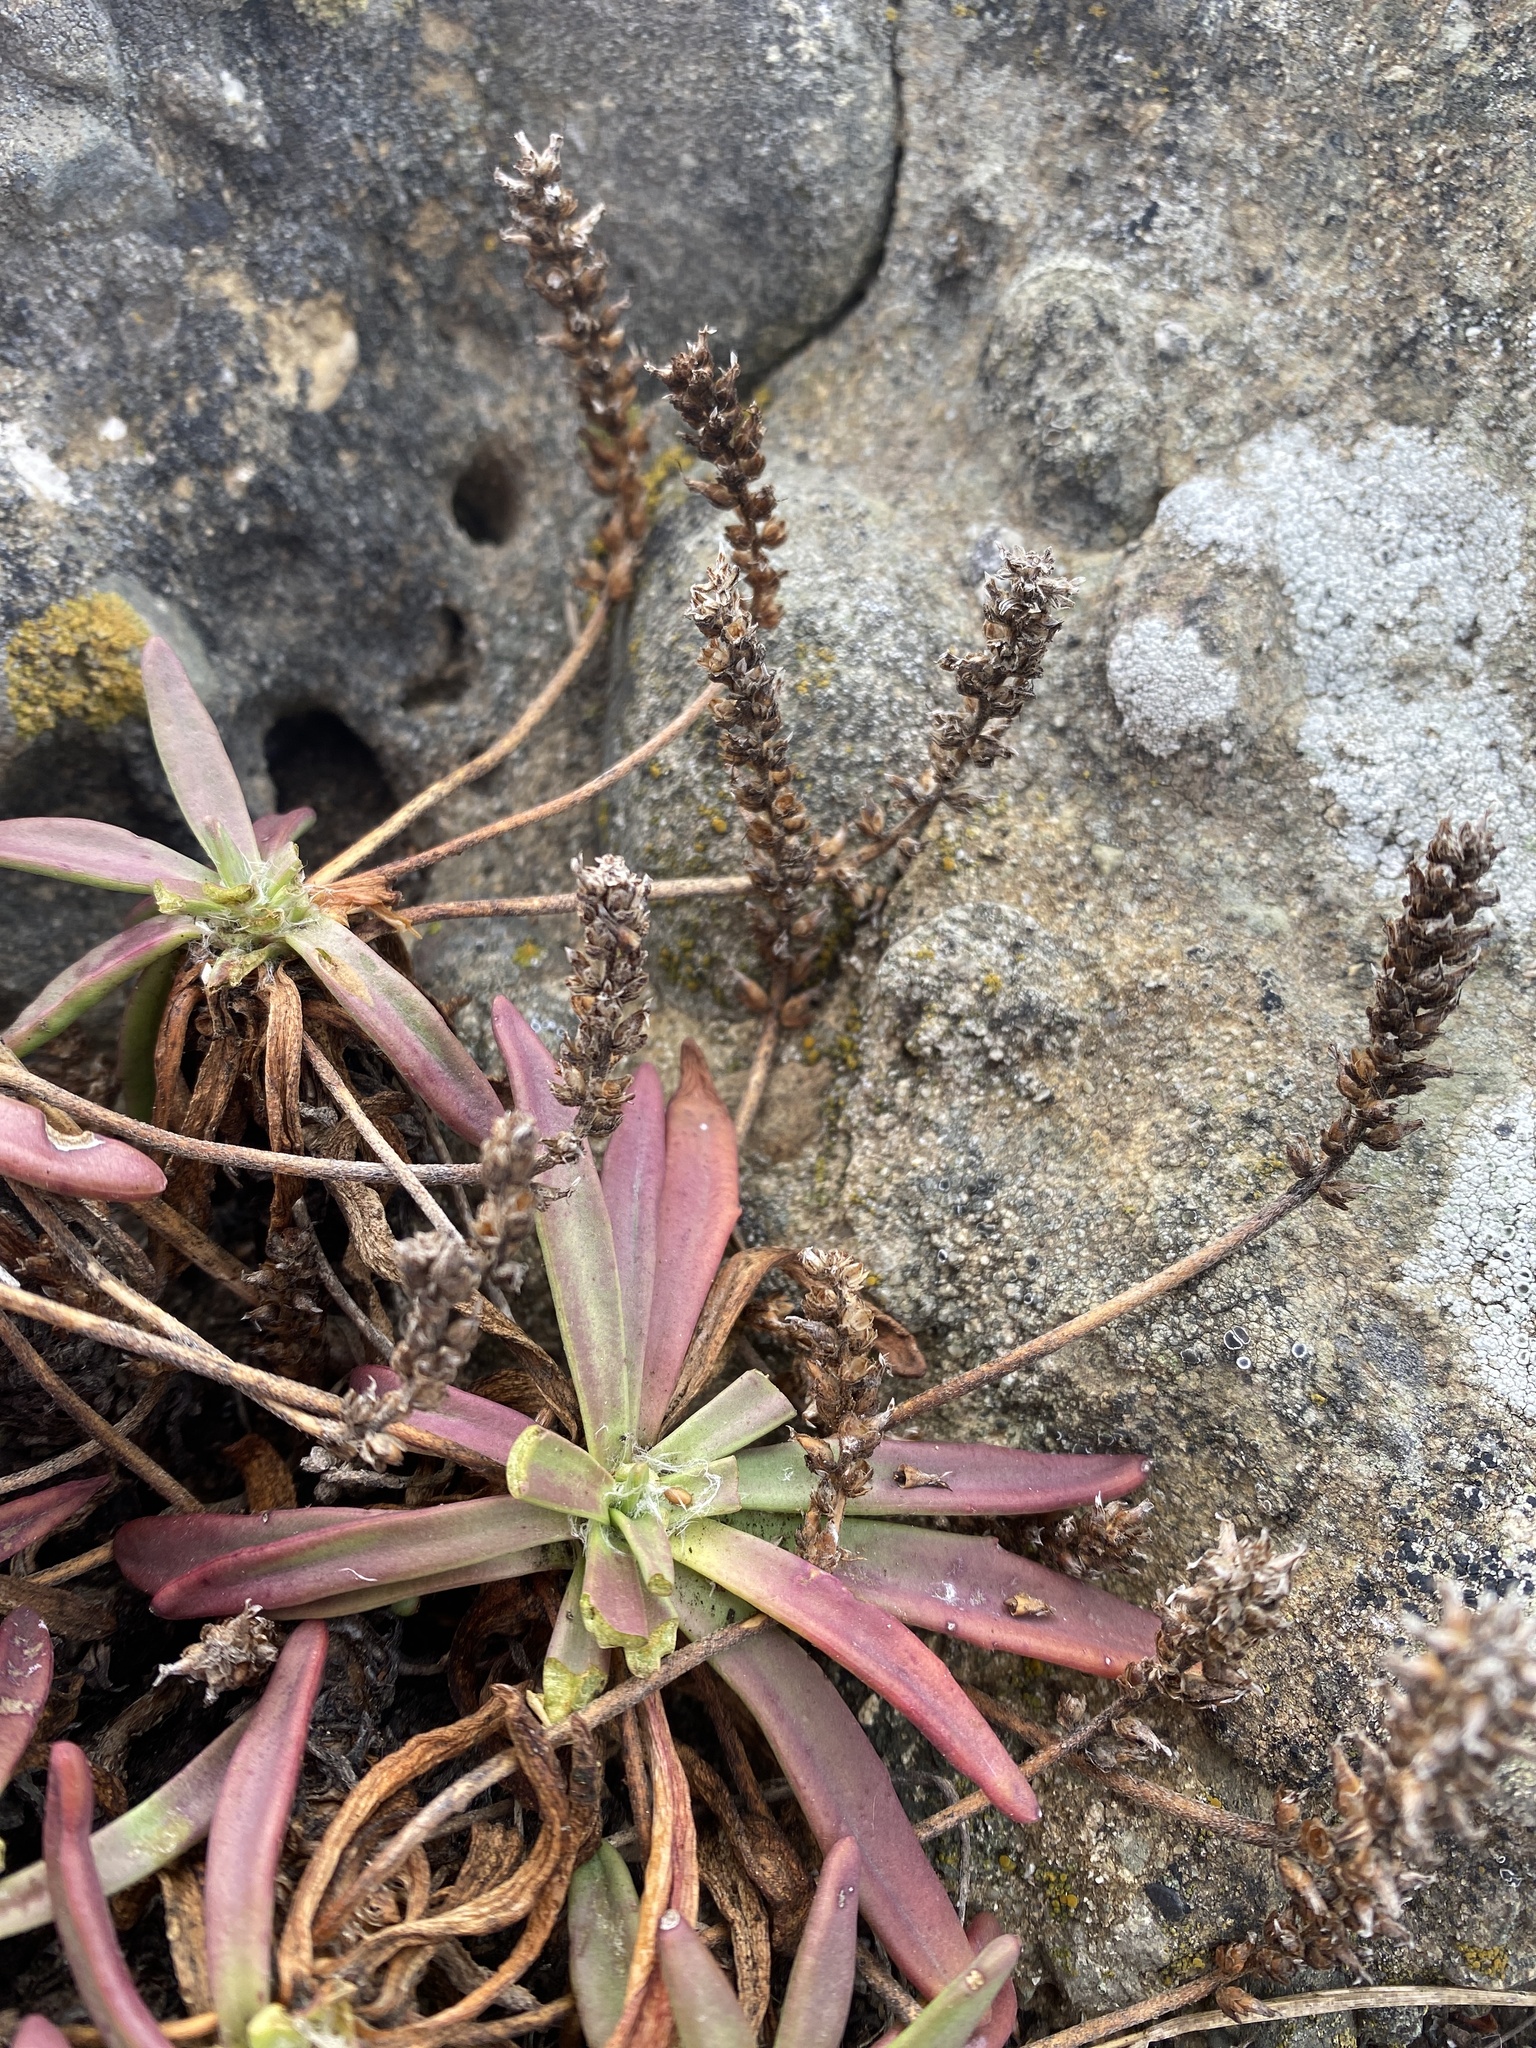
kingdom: Plantae
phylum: Tracheophyta
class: Magnoliopsida
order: Lamiales
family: Plantaginaceae
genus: Plantago
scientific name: Plantago maritima
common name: Sea plantain
